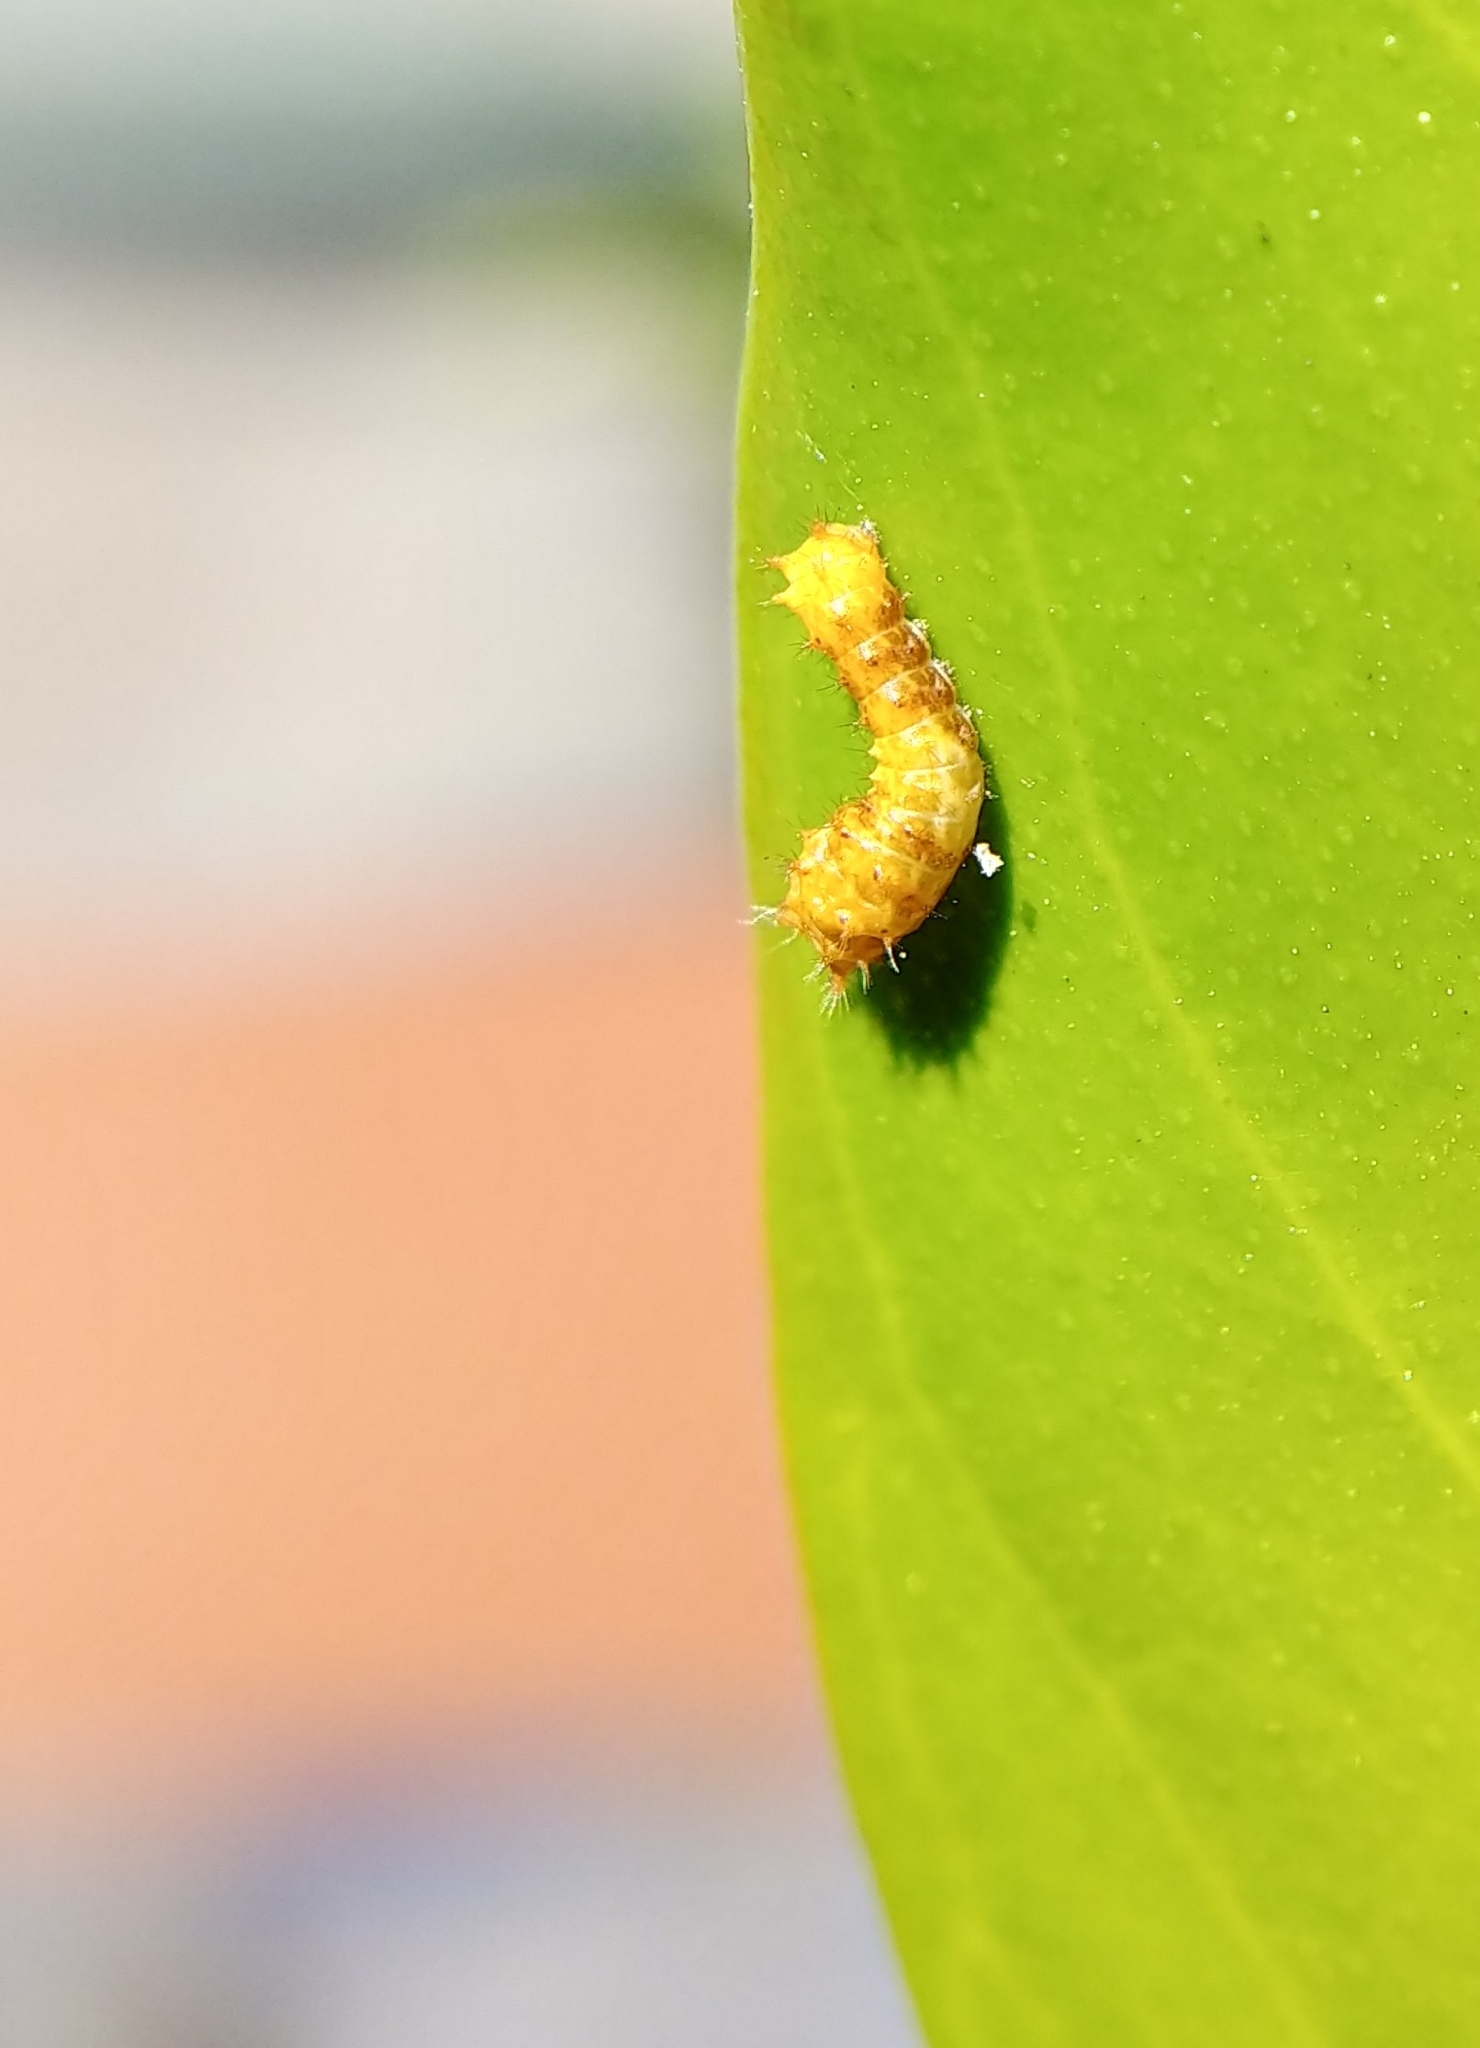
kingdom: Animalia
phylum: Arthropoda
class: Insecta
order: Lepidoptera
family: Papilionidae
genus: Papilio
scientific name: Papilio rumiko
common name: Western giant swallowtail
